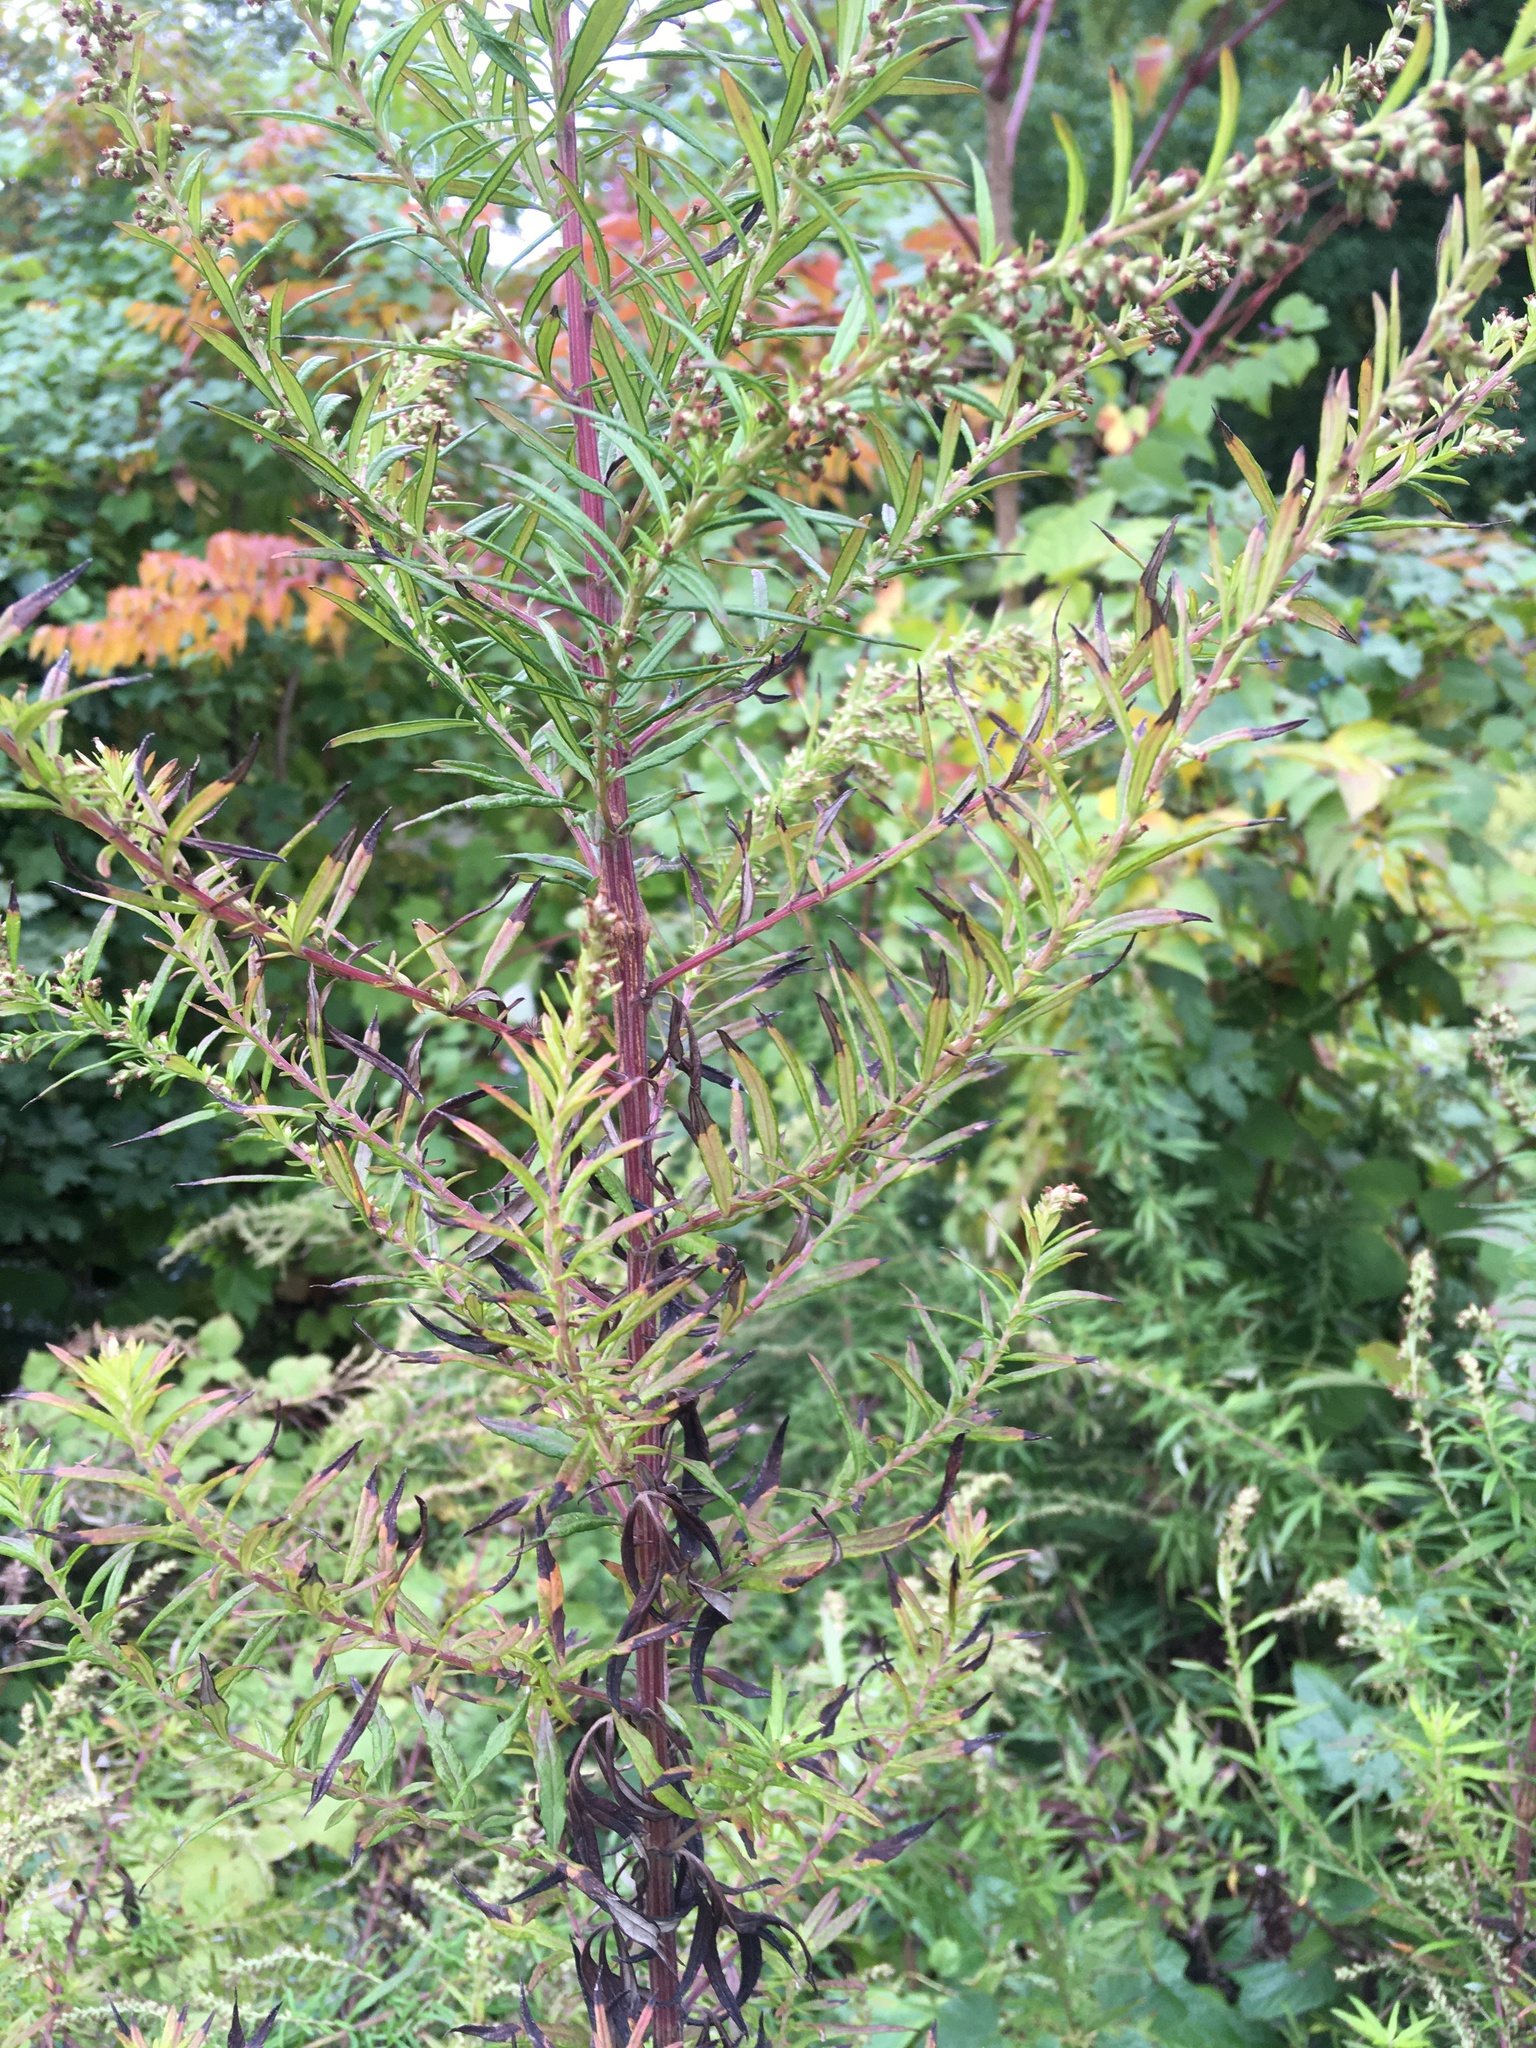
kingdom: Plantae
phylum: Tracheophyta
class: Magnoliopsida
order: Asterales
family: Asteraceae
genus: Artemisia
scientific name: Artemisia vulgaris
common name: Mugwort
